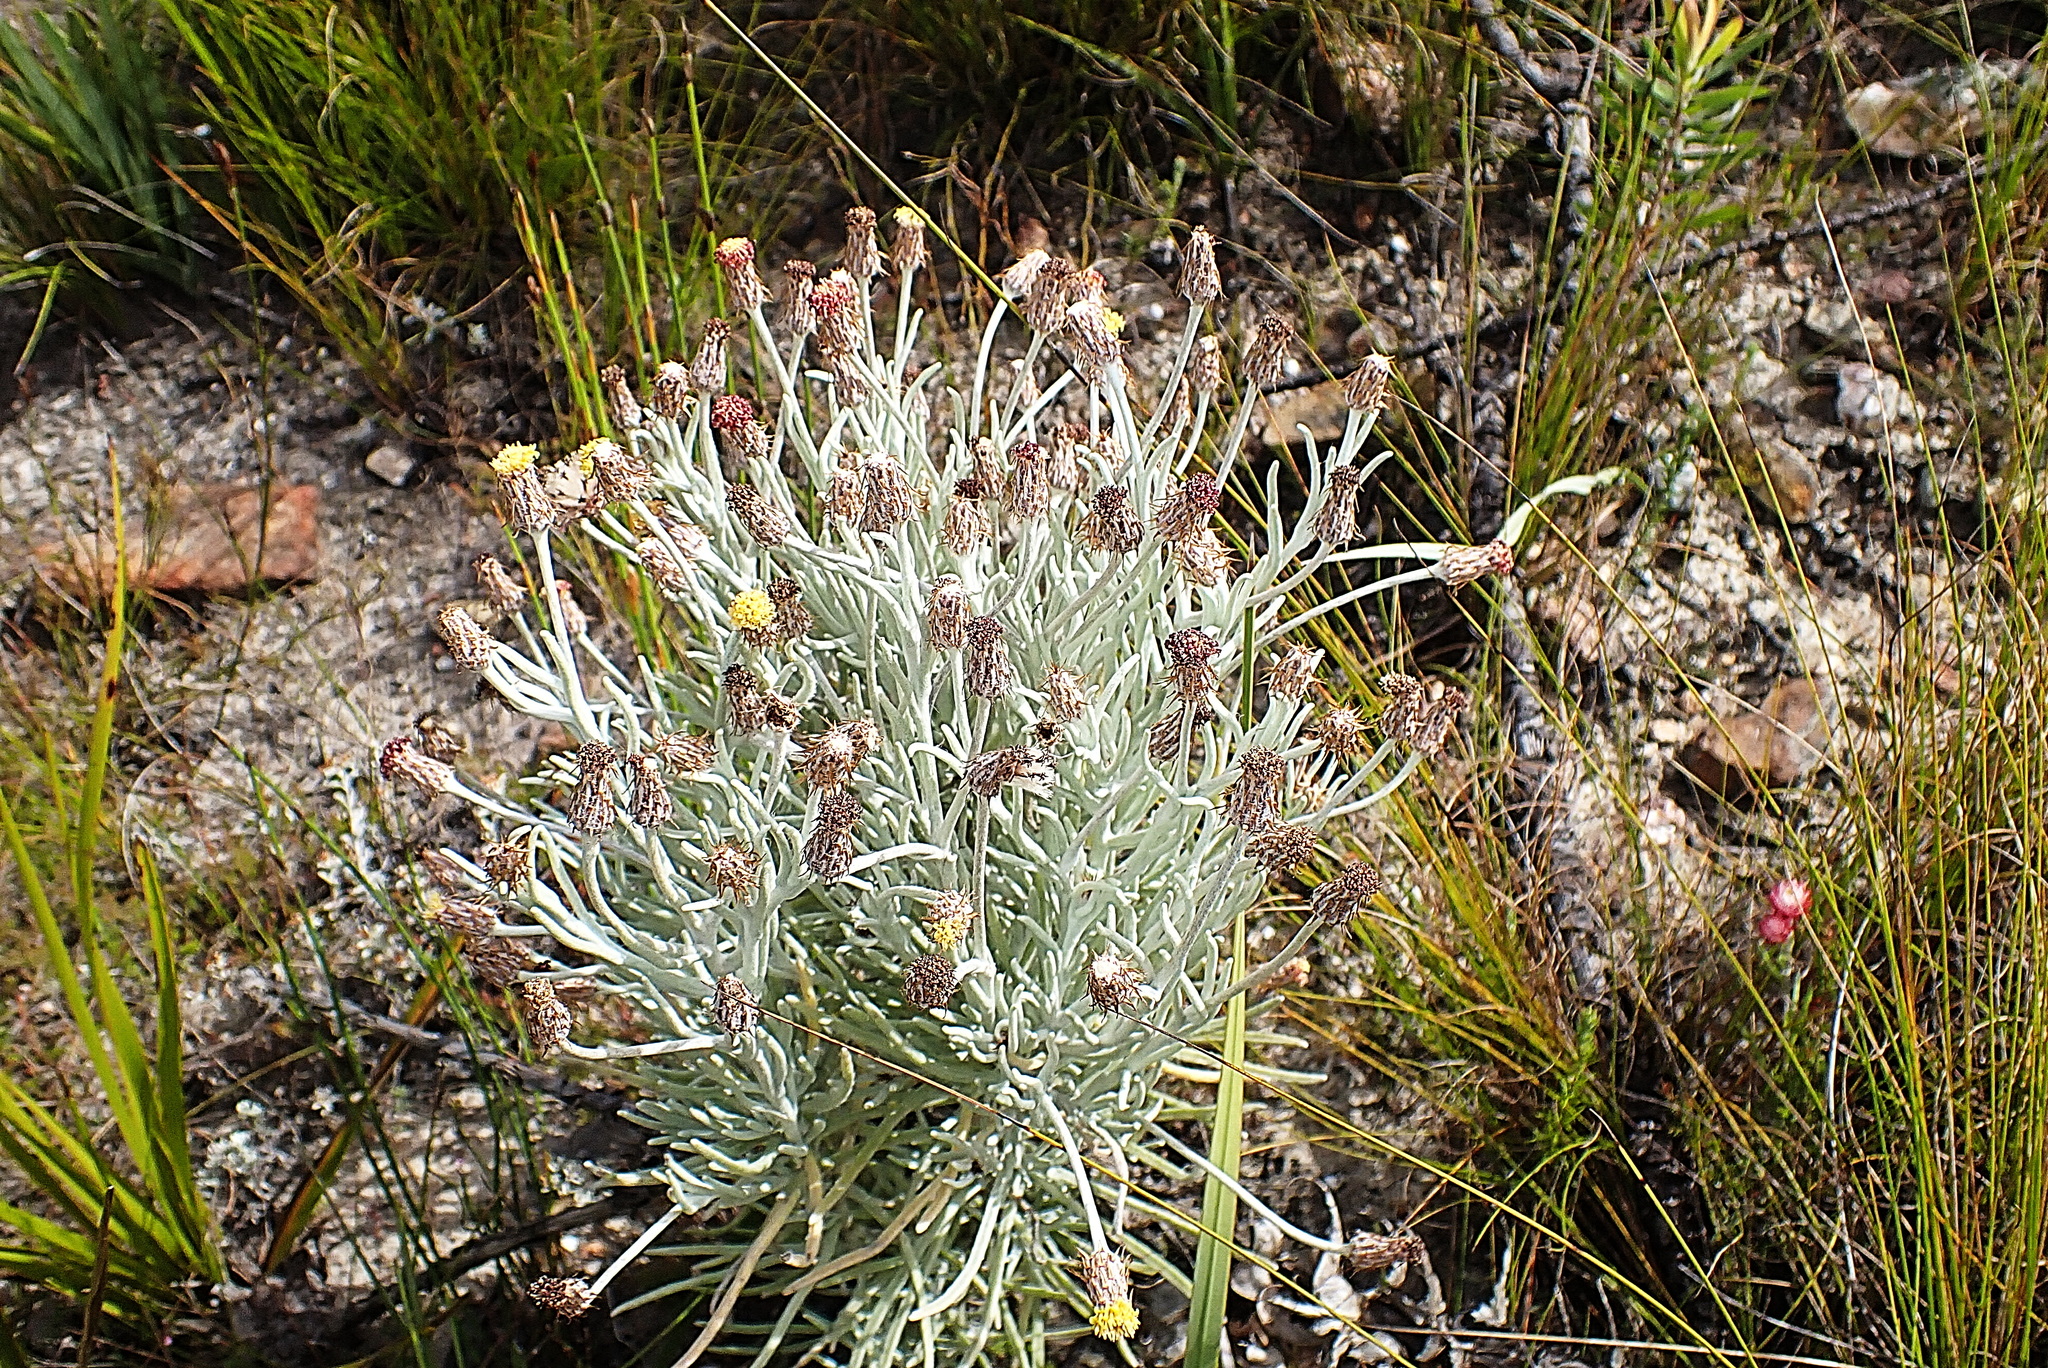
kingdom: Plantae
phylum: Tracheophyta
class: Magnoliopsida
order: Asterales
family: Asteraceae
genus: Syncarpha
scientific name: Syncarpha gnaphaloides
